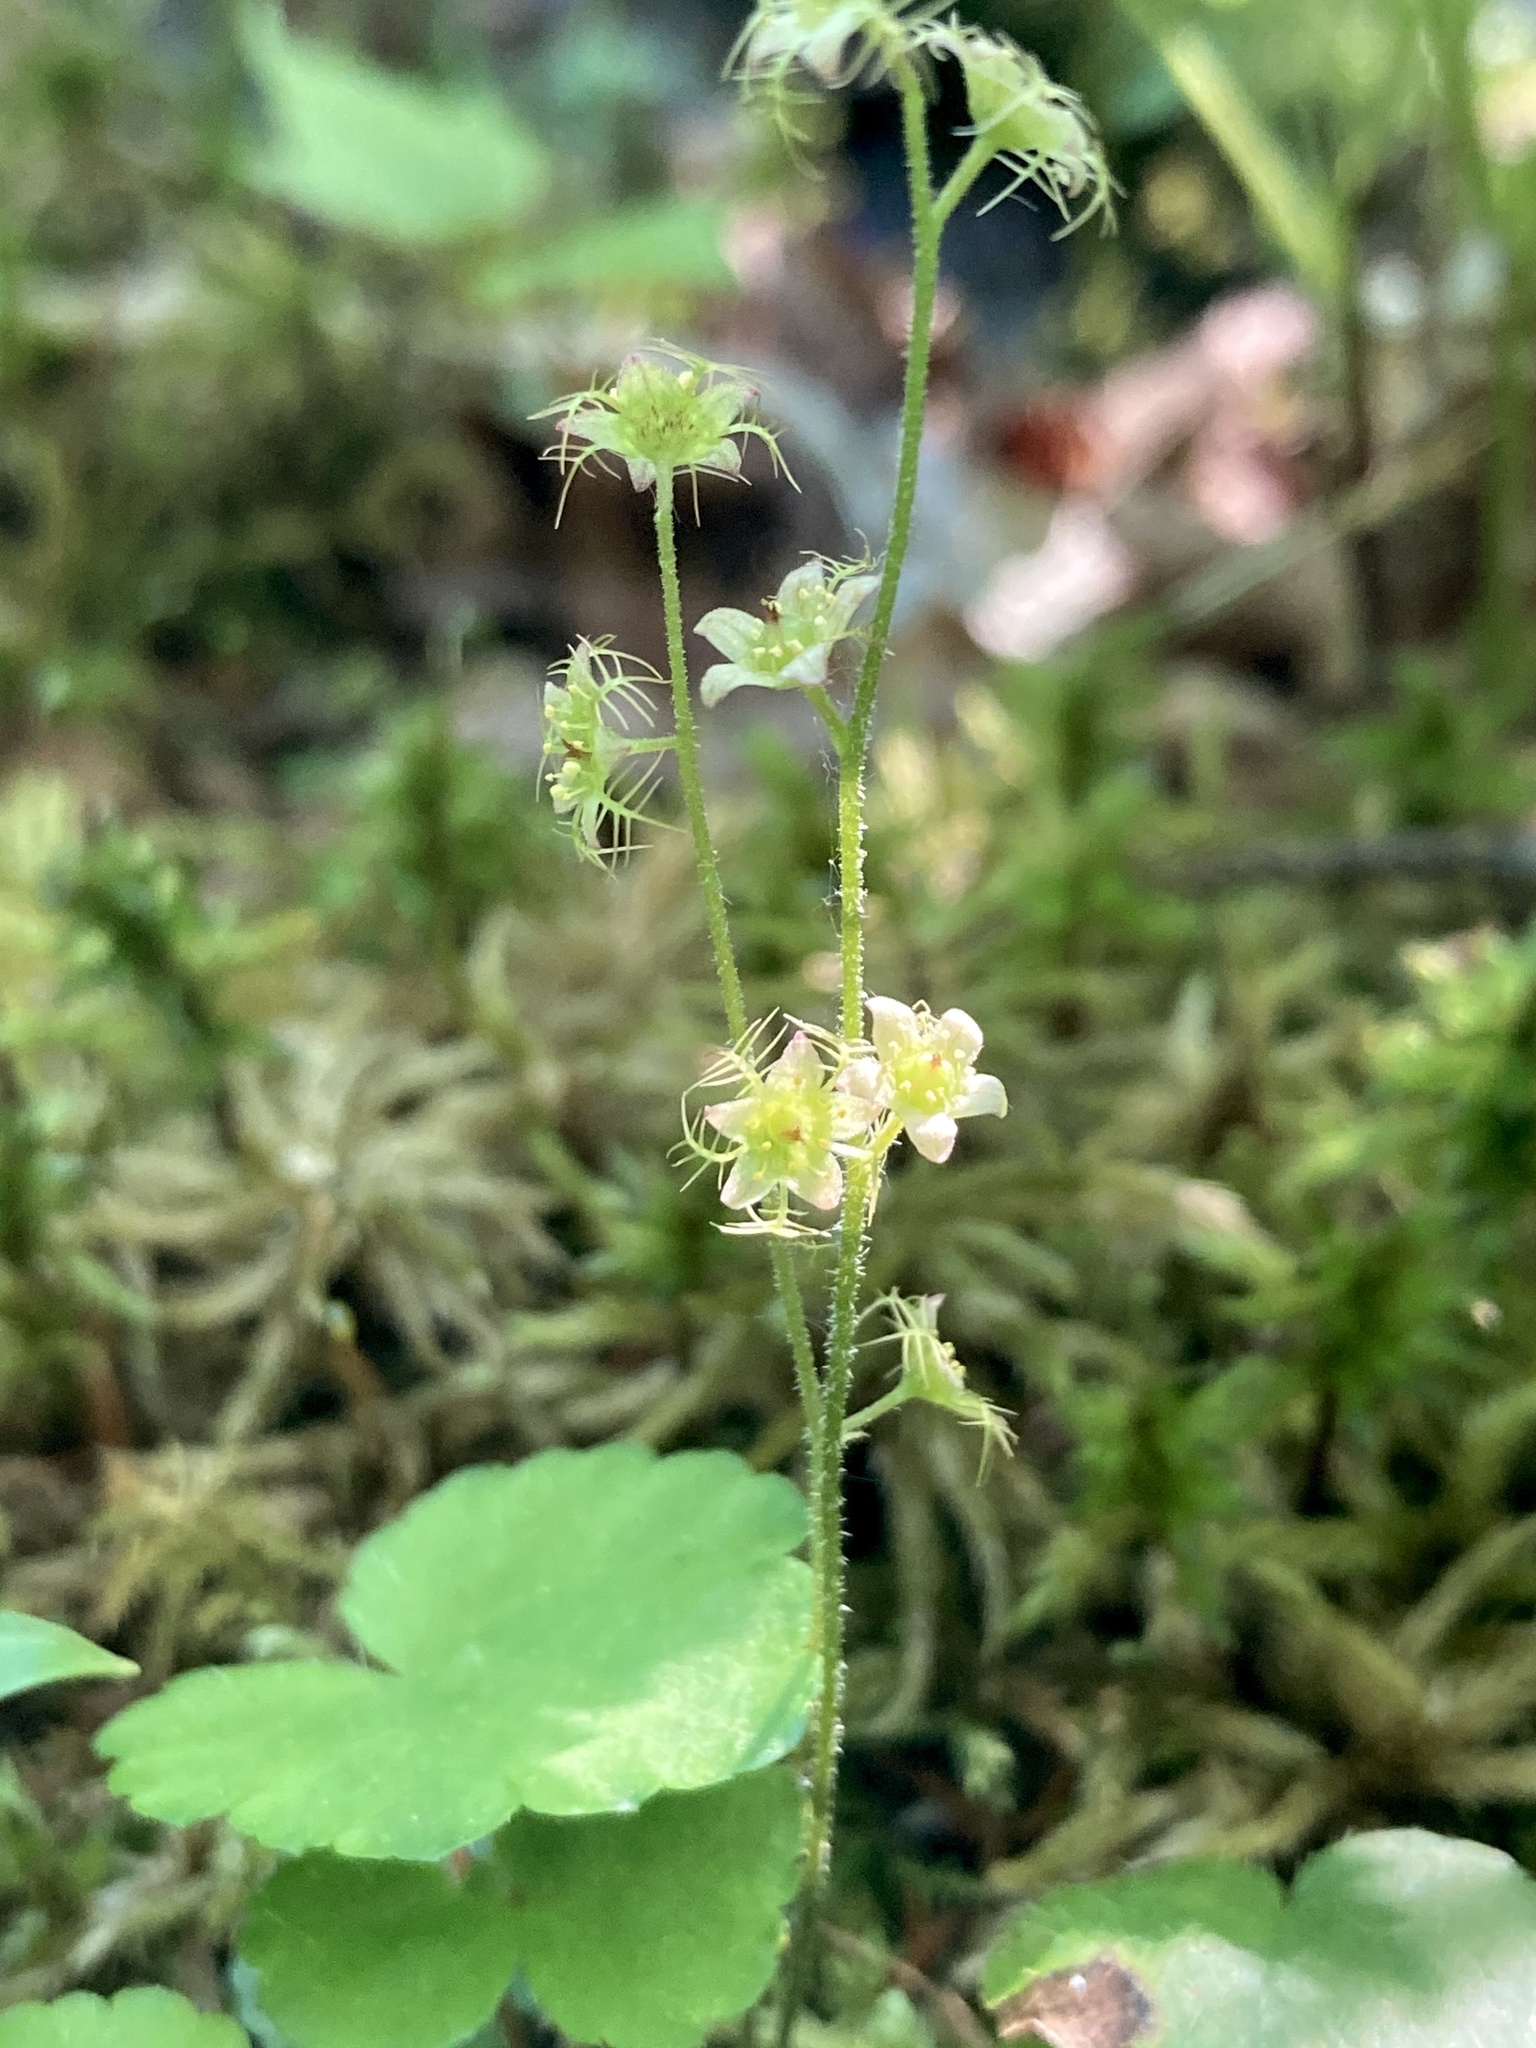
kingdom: Plantae
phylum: Tracheophyta
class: Magnoliopsida
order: Saxifragales
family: Saxifragaceae
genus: Mitella
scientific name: Mitella nuda
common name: Bare-stemmed bishop's-cap
